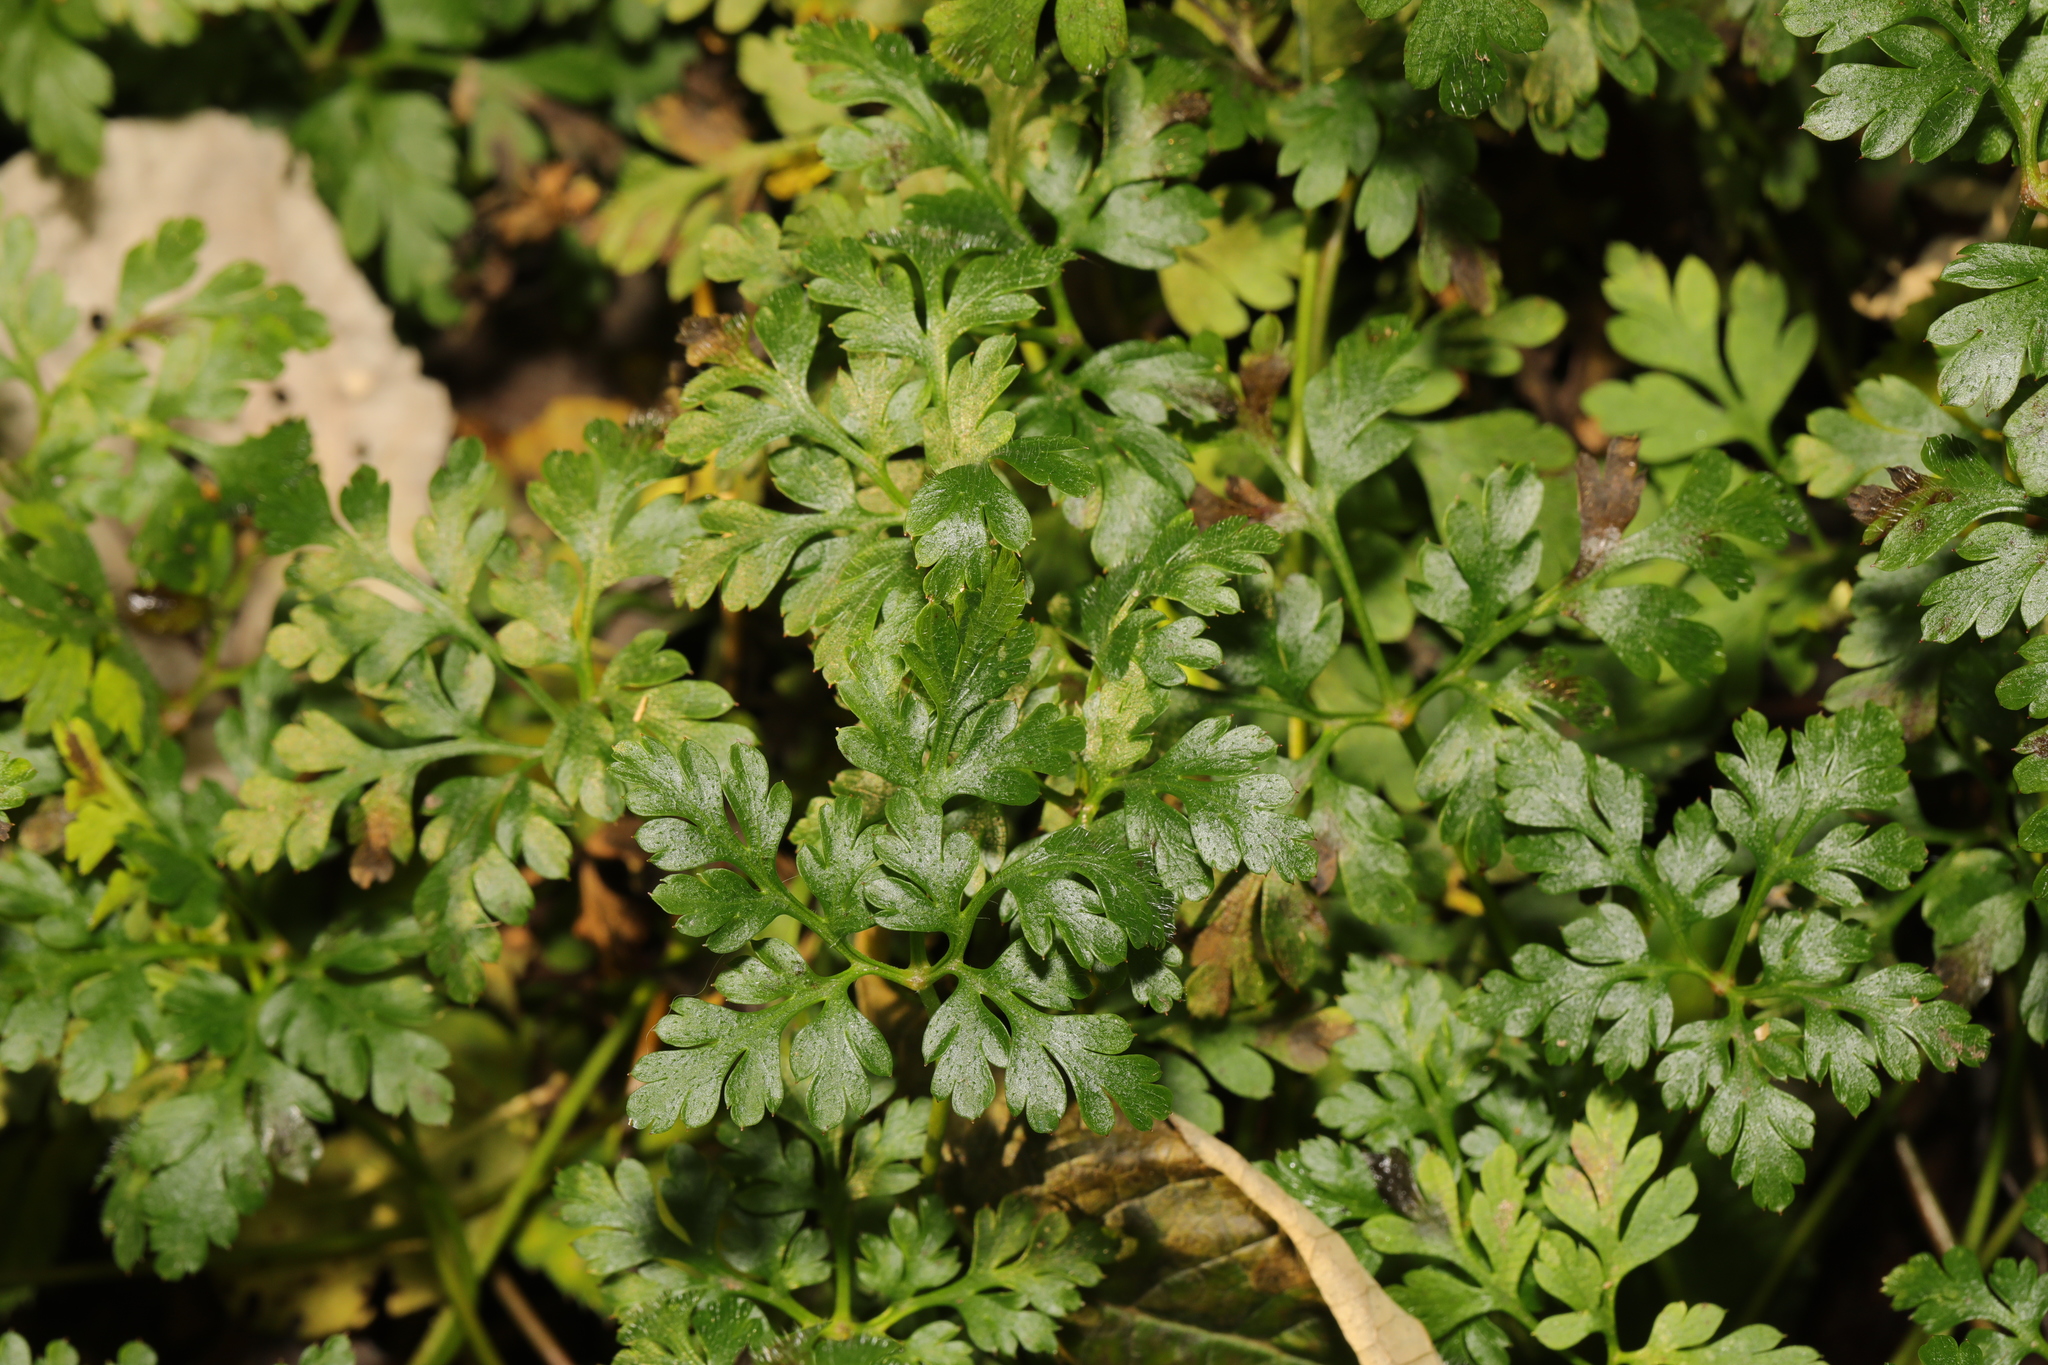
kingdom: Plantae
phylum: Tracheophyta
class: Magnoliopsida
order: Geraniales
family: Geraniaceae
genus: Geranium
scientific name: Geranium robertianum
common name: Herb-robert
